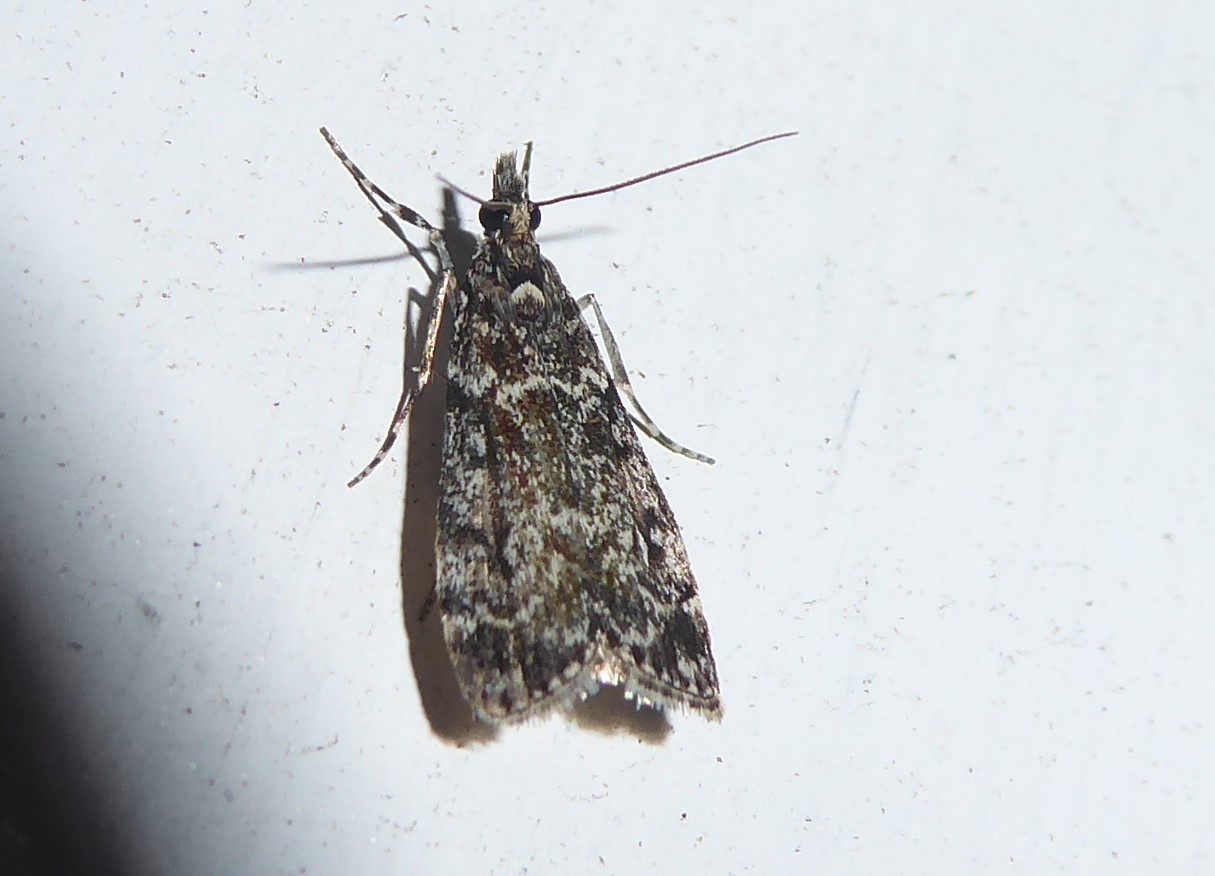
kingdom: Animalia
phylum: Arthropoda
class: Insecta
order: Lepidoptera
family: Crambidae
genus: Eudonia
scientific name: Eudonia philerga
